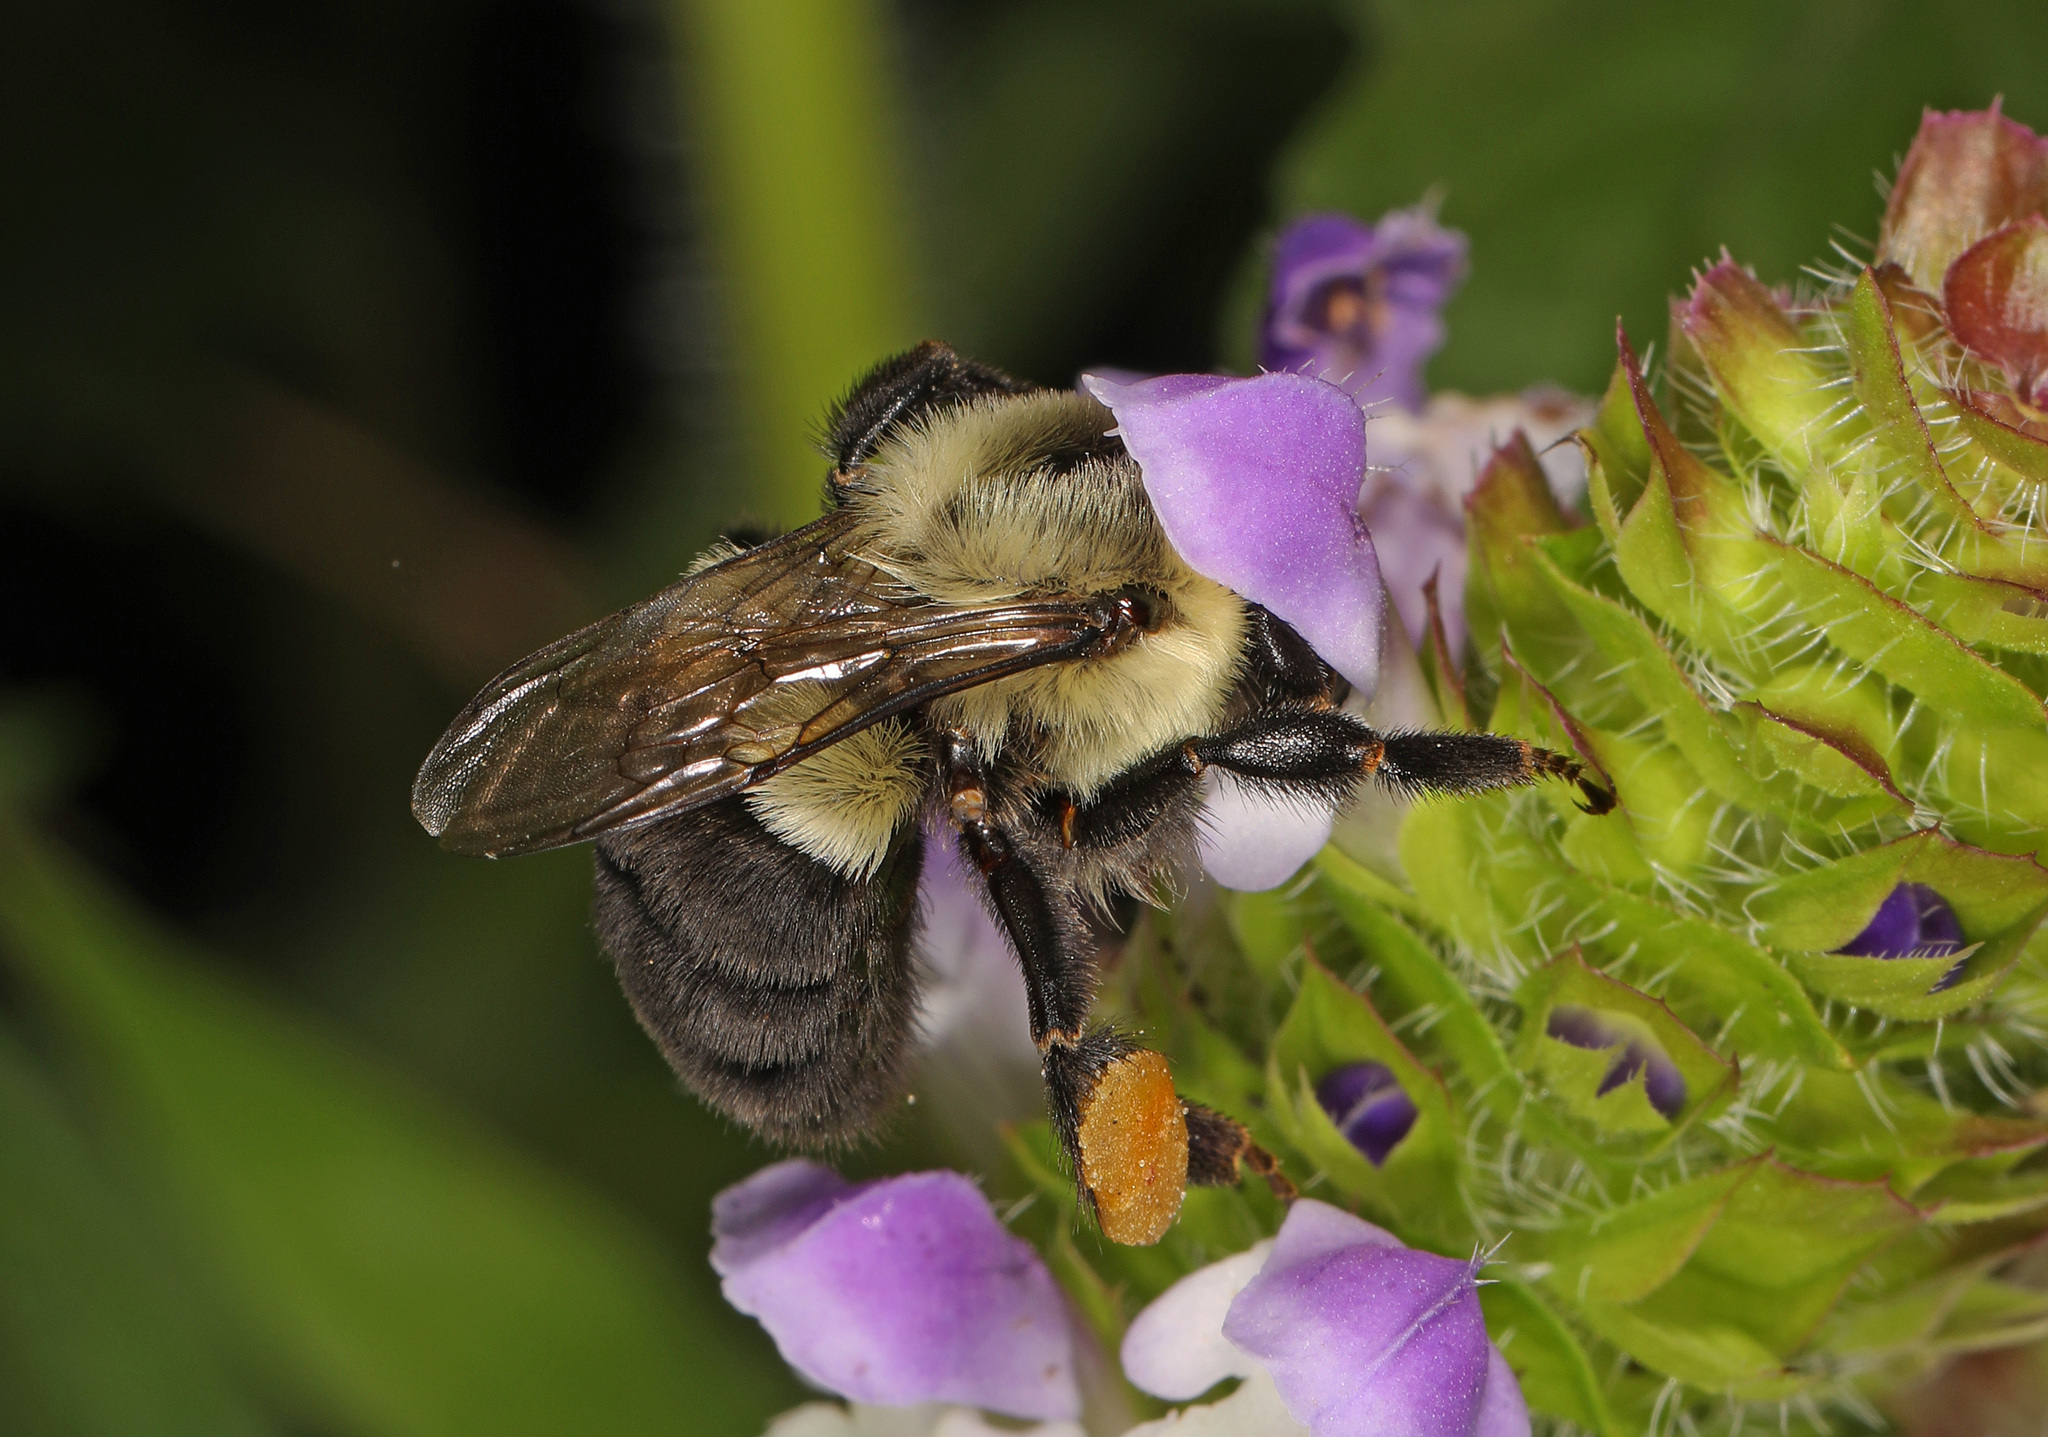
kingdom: Animalia
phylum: Arthropoda
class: Insecta
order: Hymenoptera
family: Apidae
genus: Bombus
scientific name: Bombus impatiens
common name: Common eastern bumble bee
